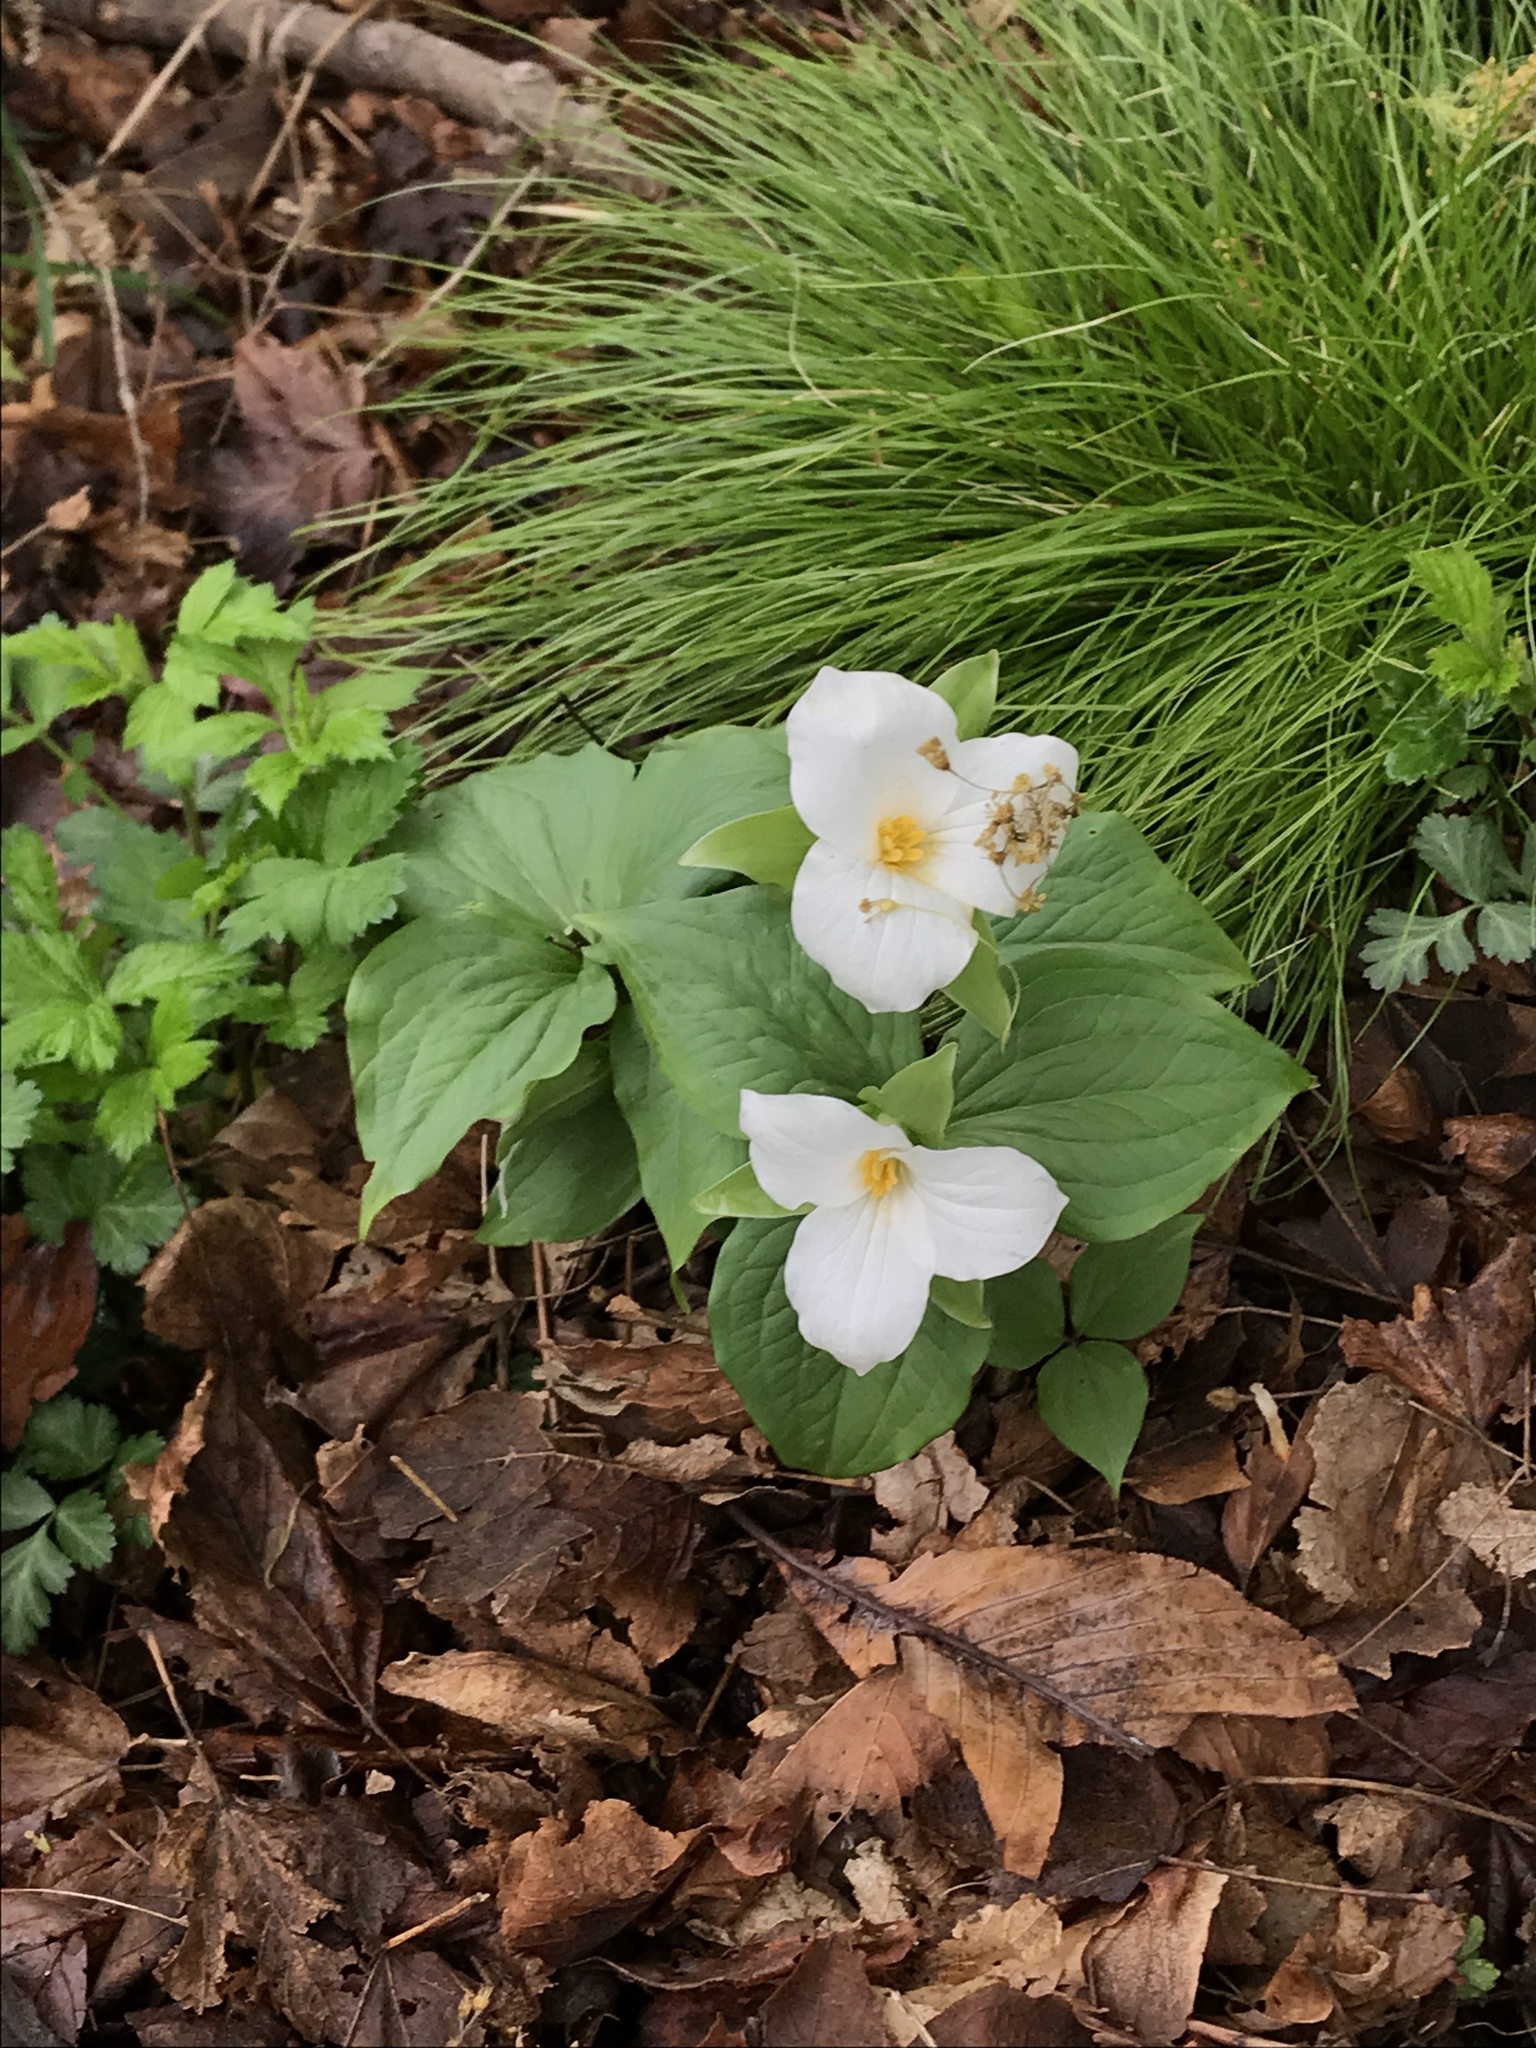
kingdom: Plantae
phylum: Tracheophyta
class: Liliopsida
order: Liliales
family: Melanthiaceae
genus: Trillium
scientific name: Trillium grandiflorum
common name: Great white trillium
